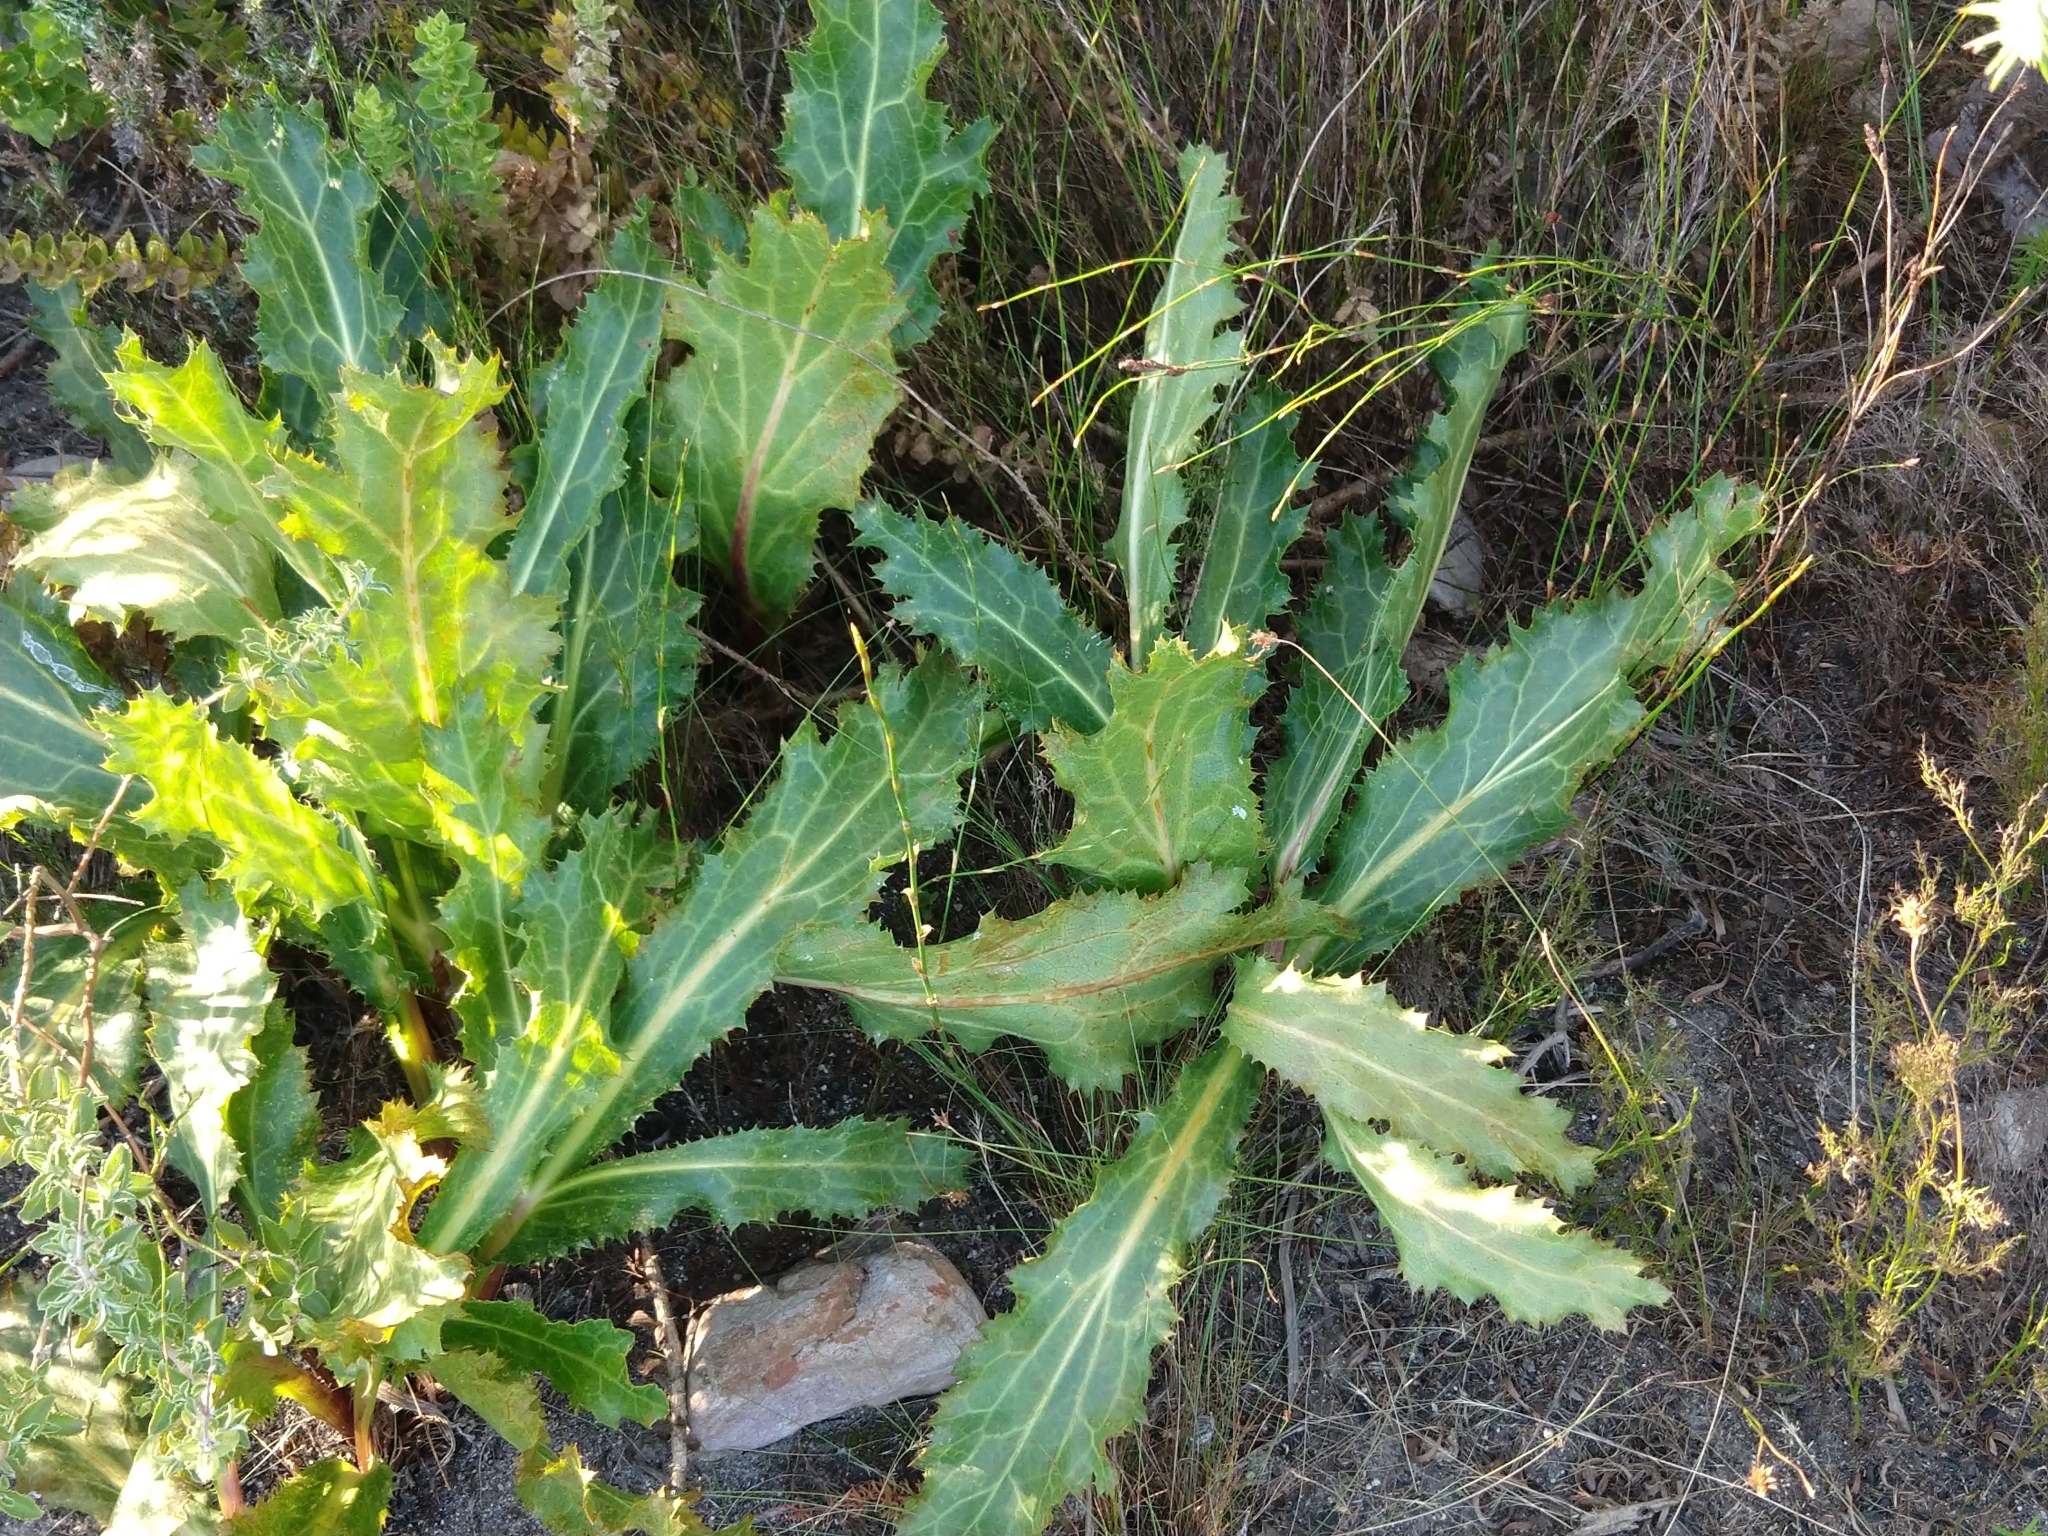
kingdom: Plantae
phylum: Tracheophyta
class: Magnoliopsida
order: Apiales
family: Apiaceae
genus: Lichtensteinia
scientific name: Lichtensteinia lacera
